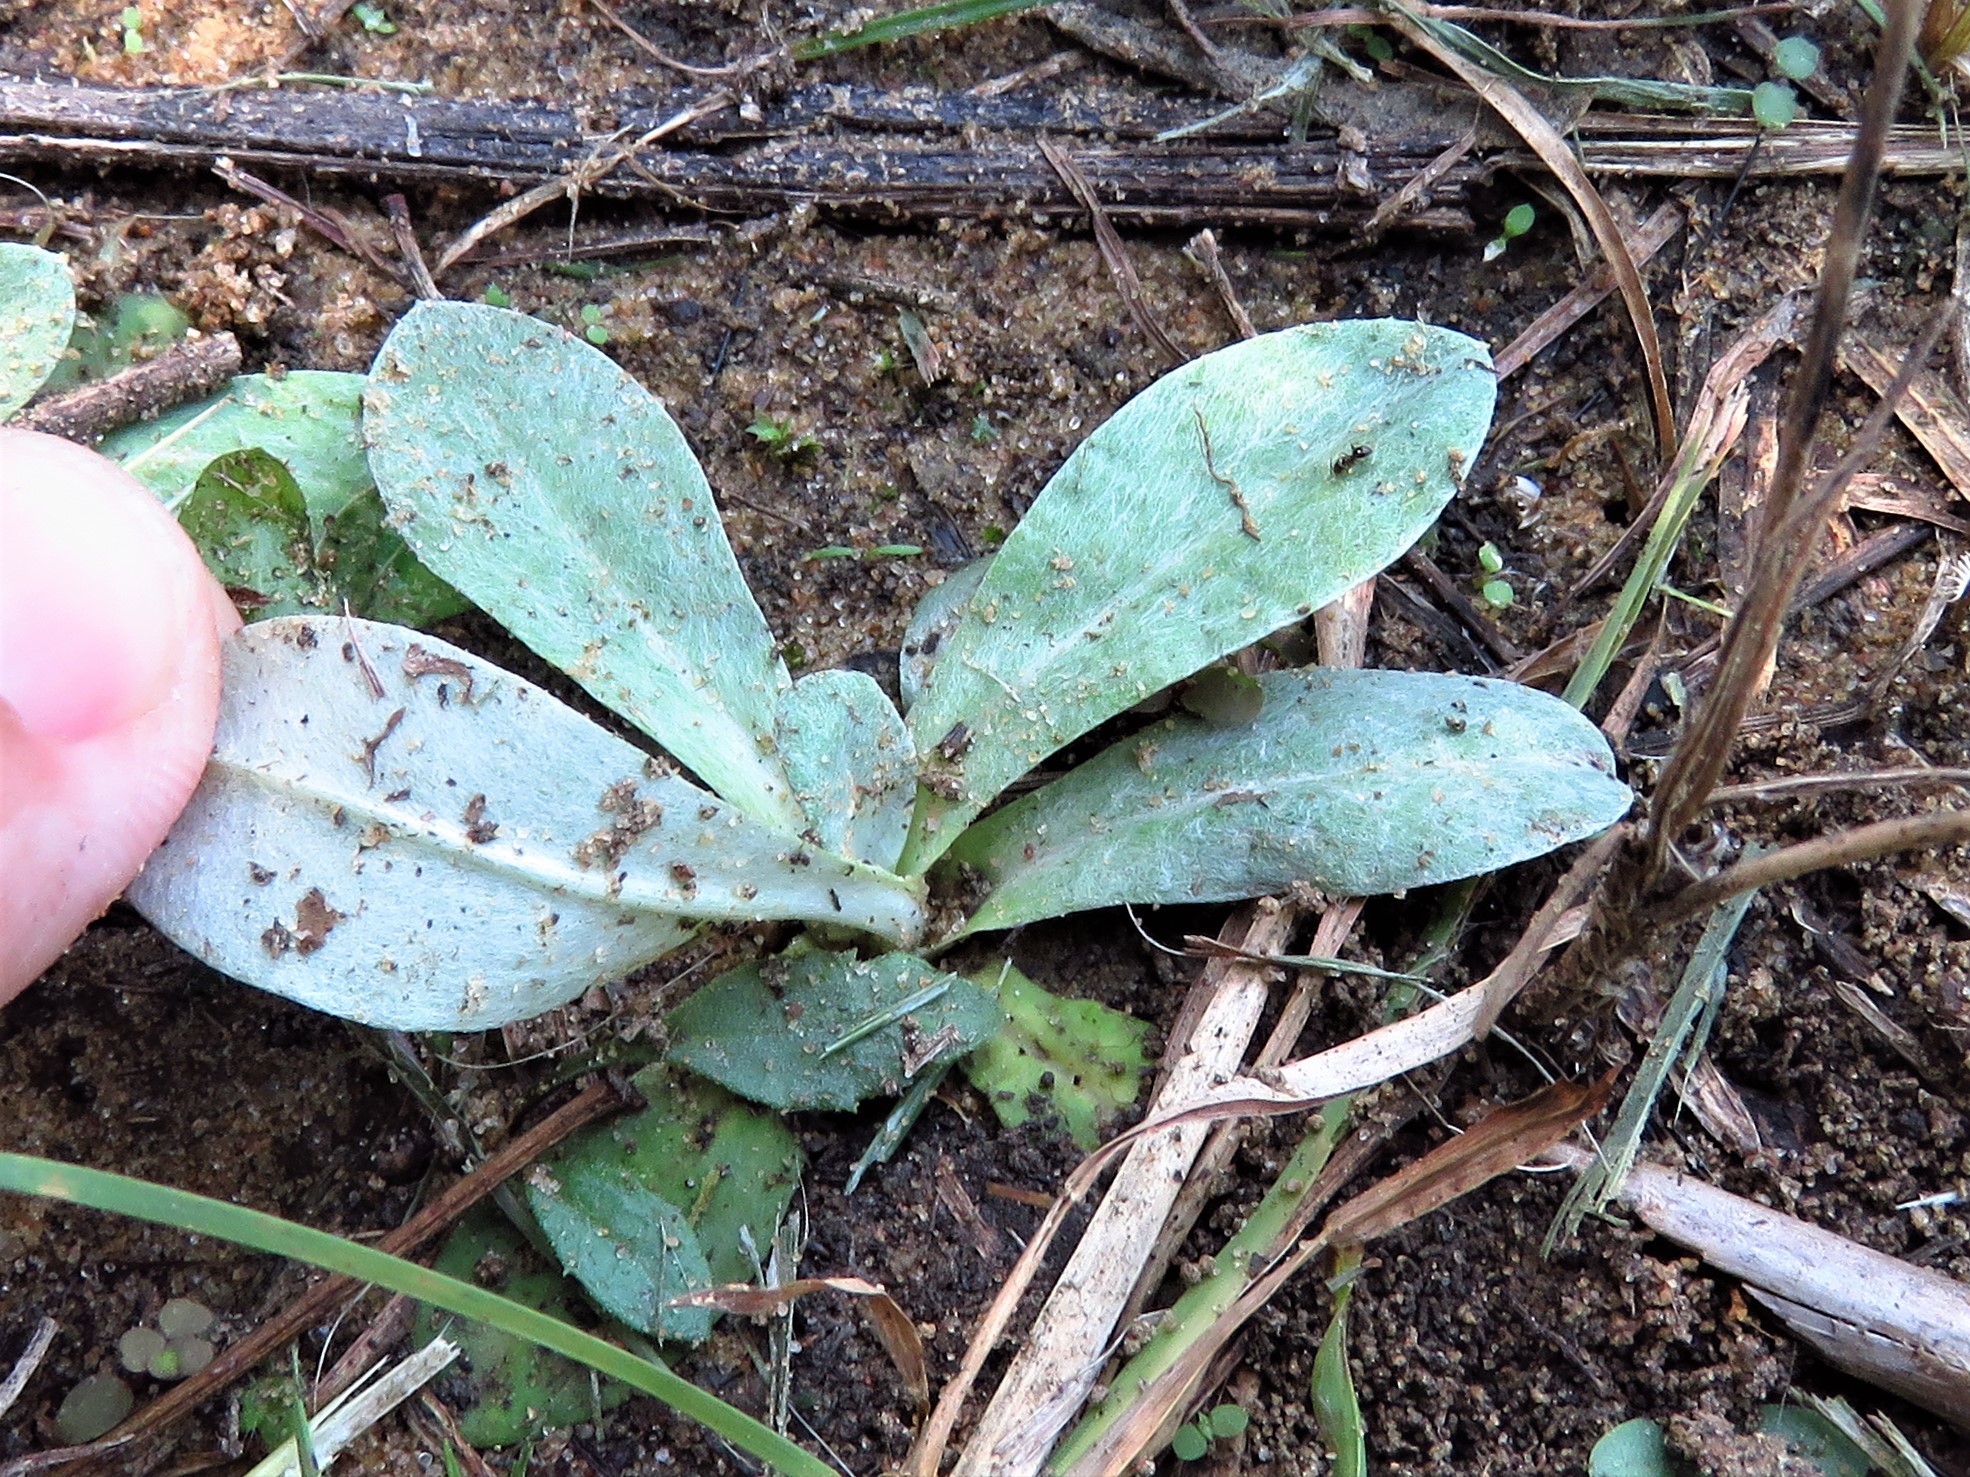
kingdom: Plantae
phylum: Tracheophyta
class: Magnoliopsida
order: Asterales
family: Asteraceae
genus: Gamochaeta
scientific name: Gamochaeta pensylvanica
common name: Pennsylvania everlasting
